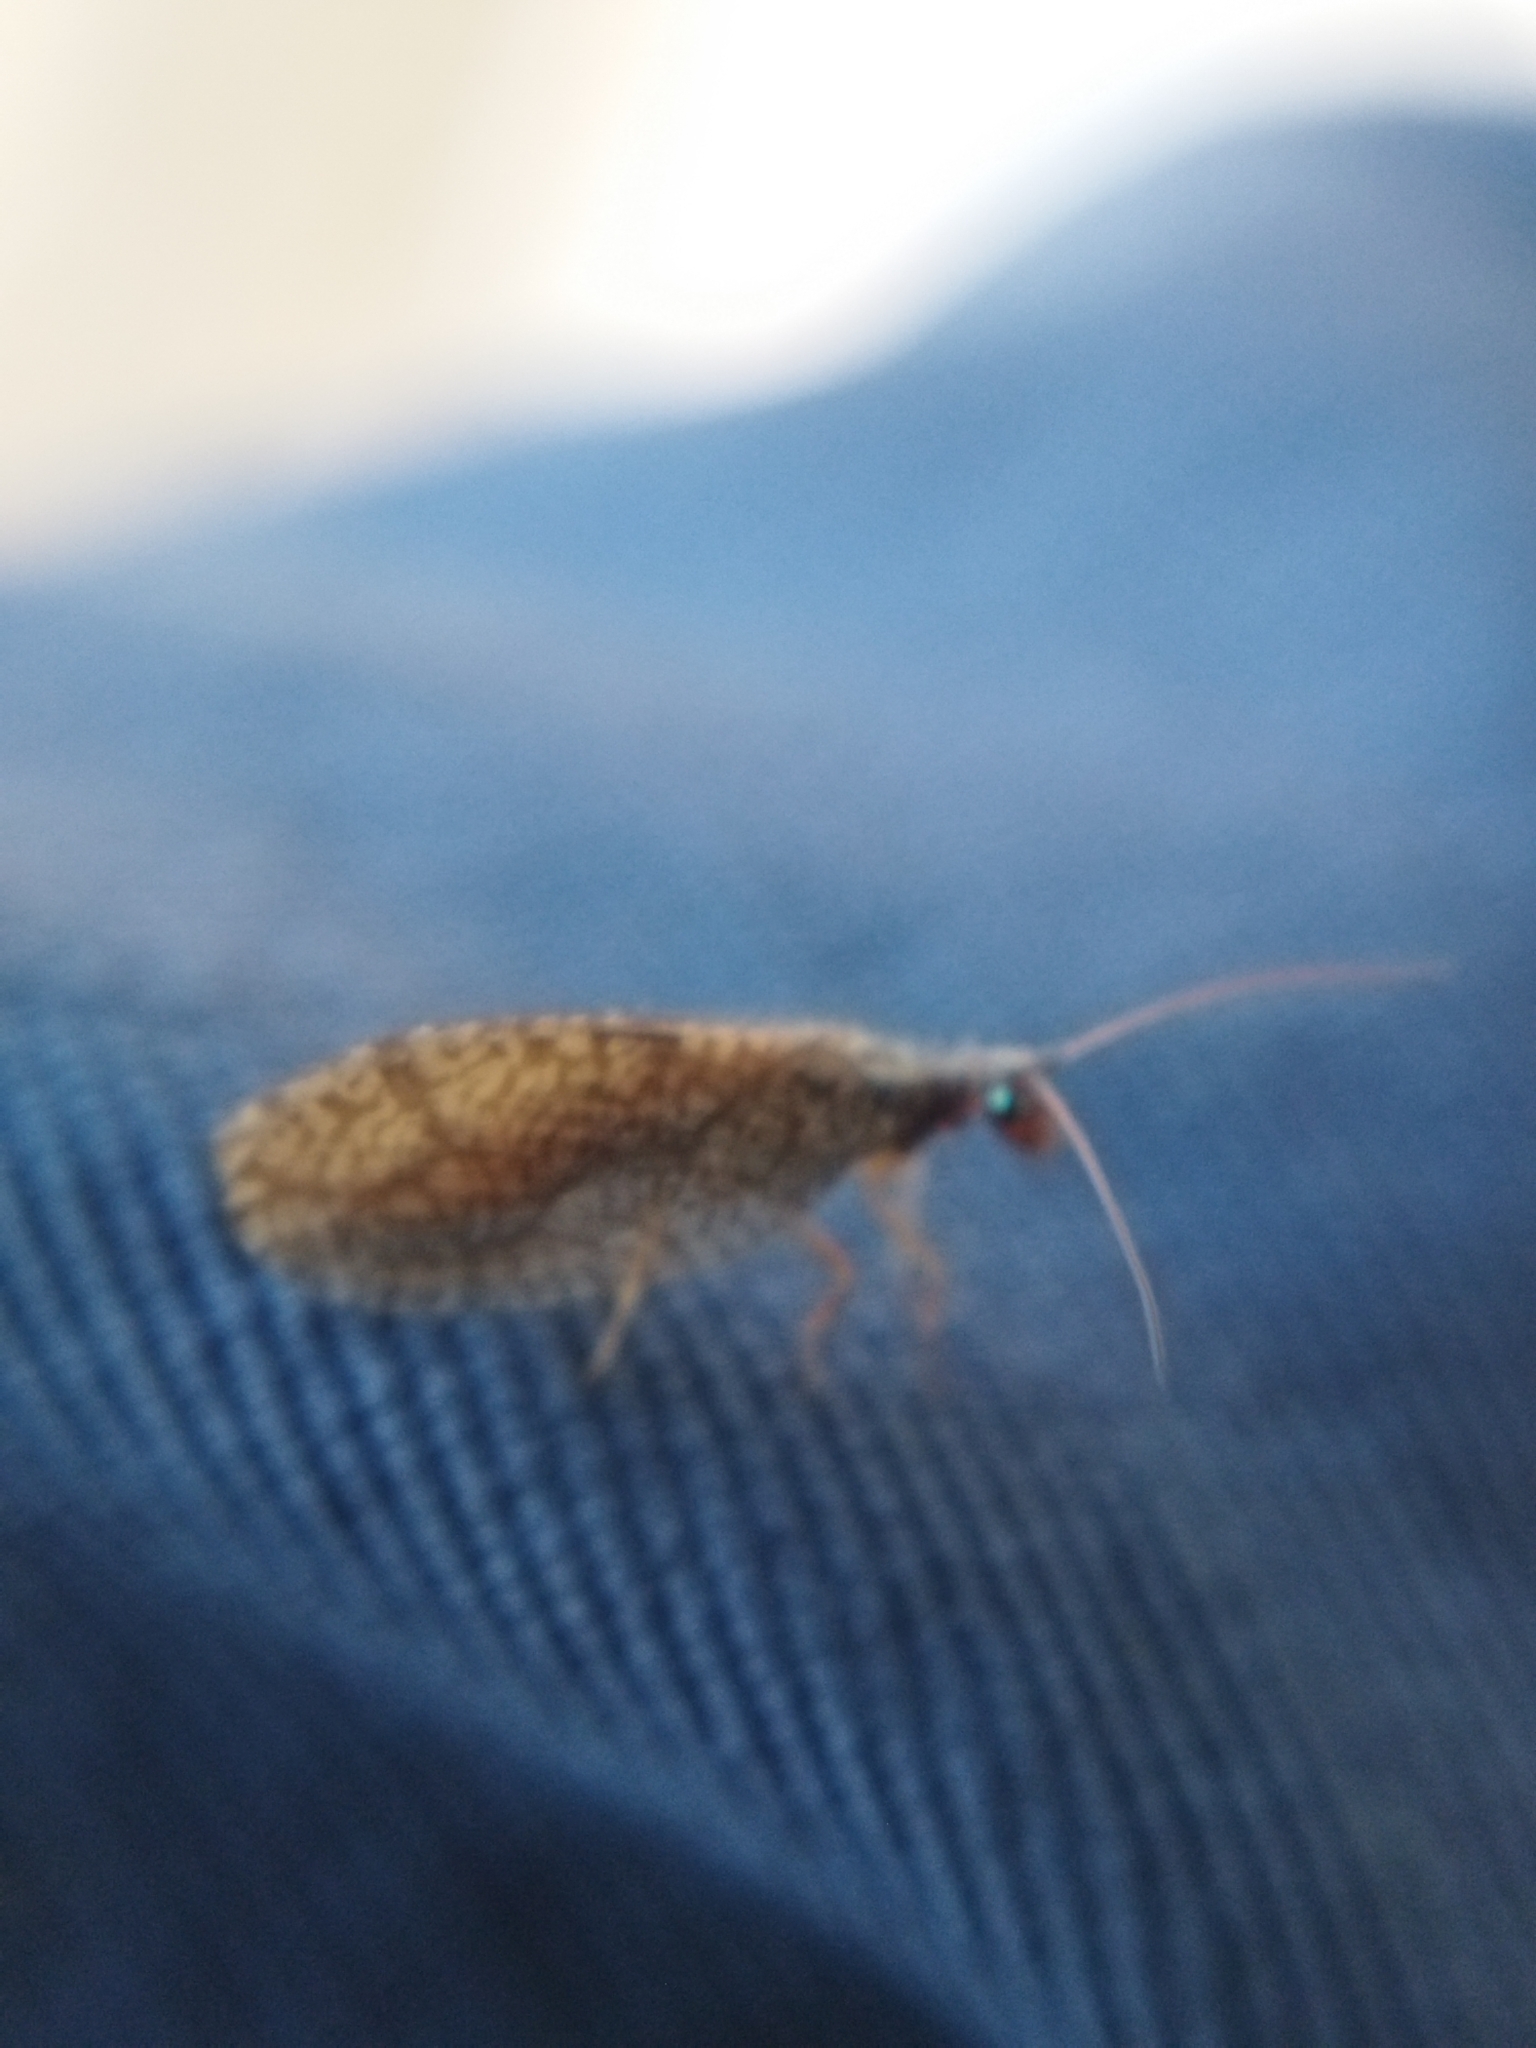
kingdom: Animalia
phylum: Arthropoda
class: Insecta
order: Neuroptera
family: Hemerobiidae
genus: Micromus
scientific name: Micromus angulatus
